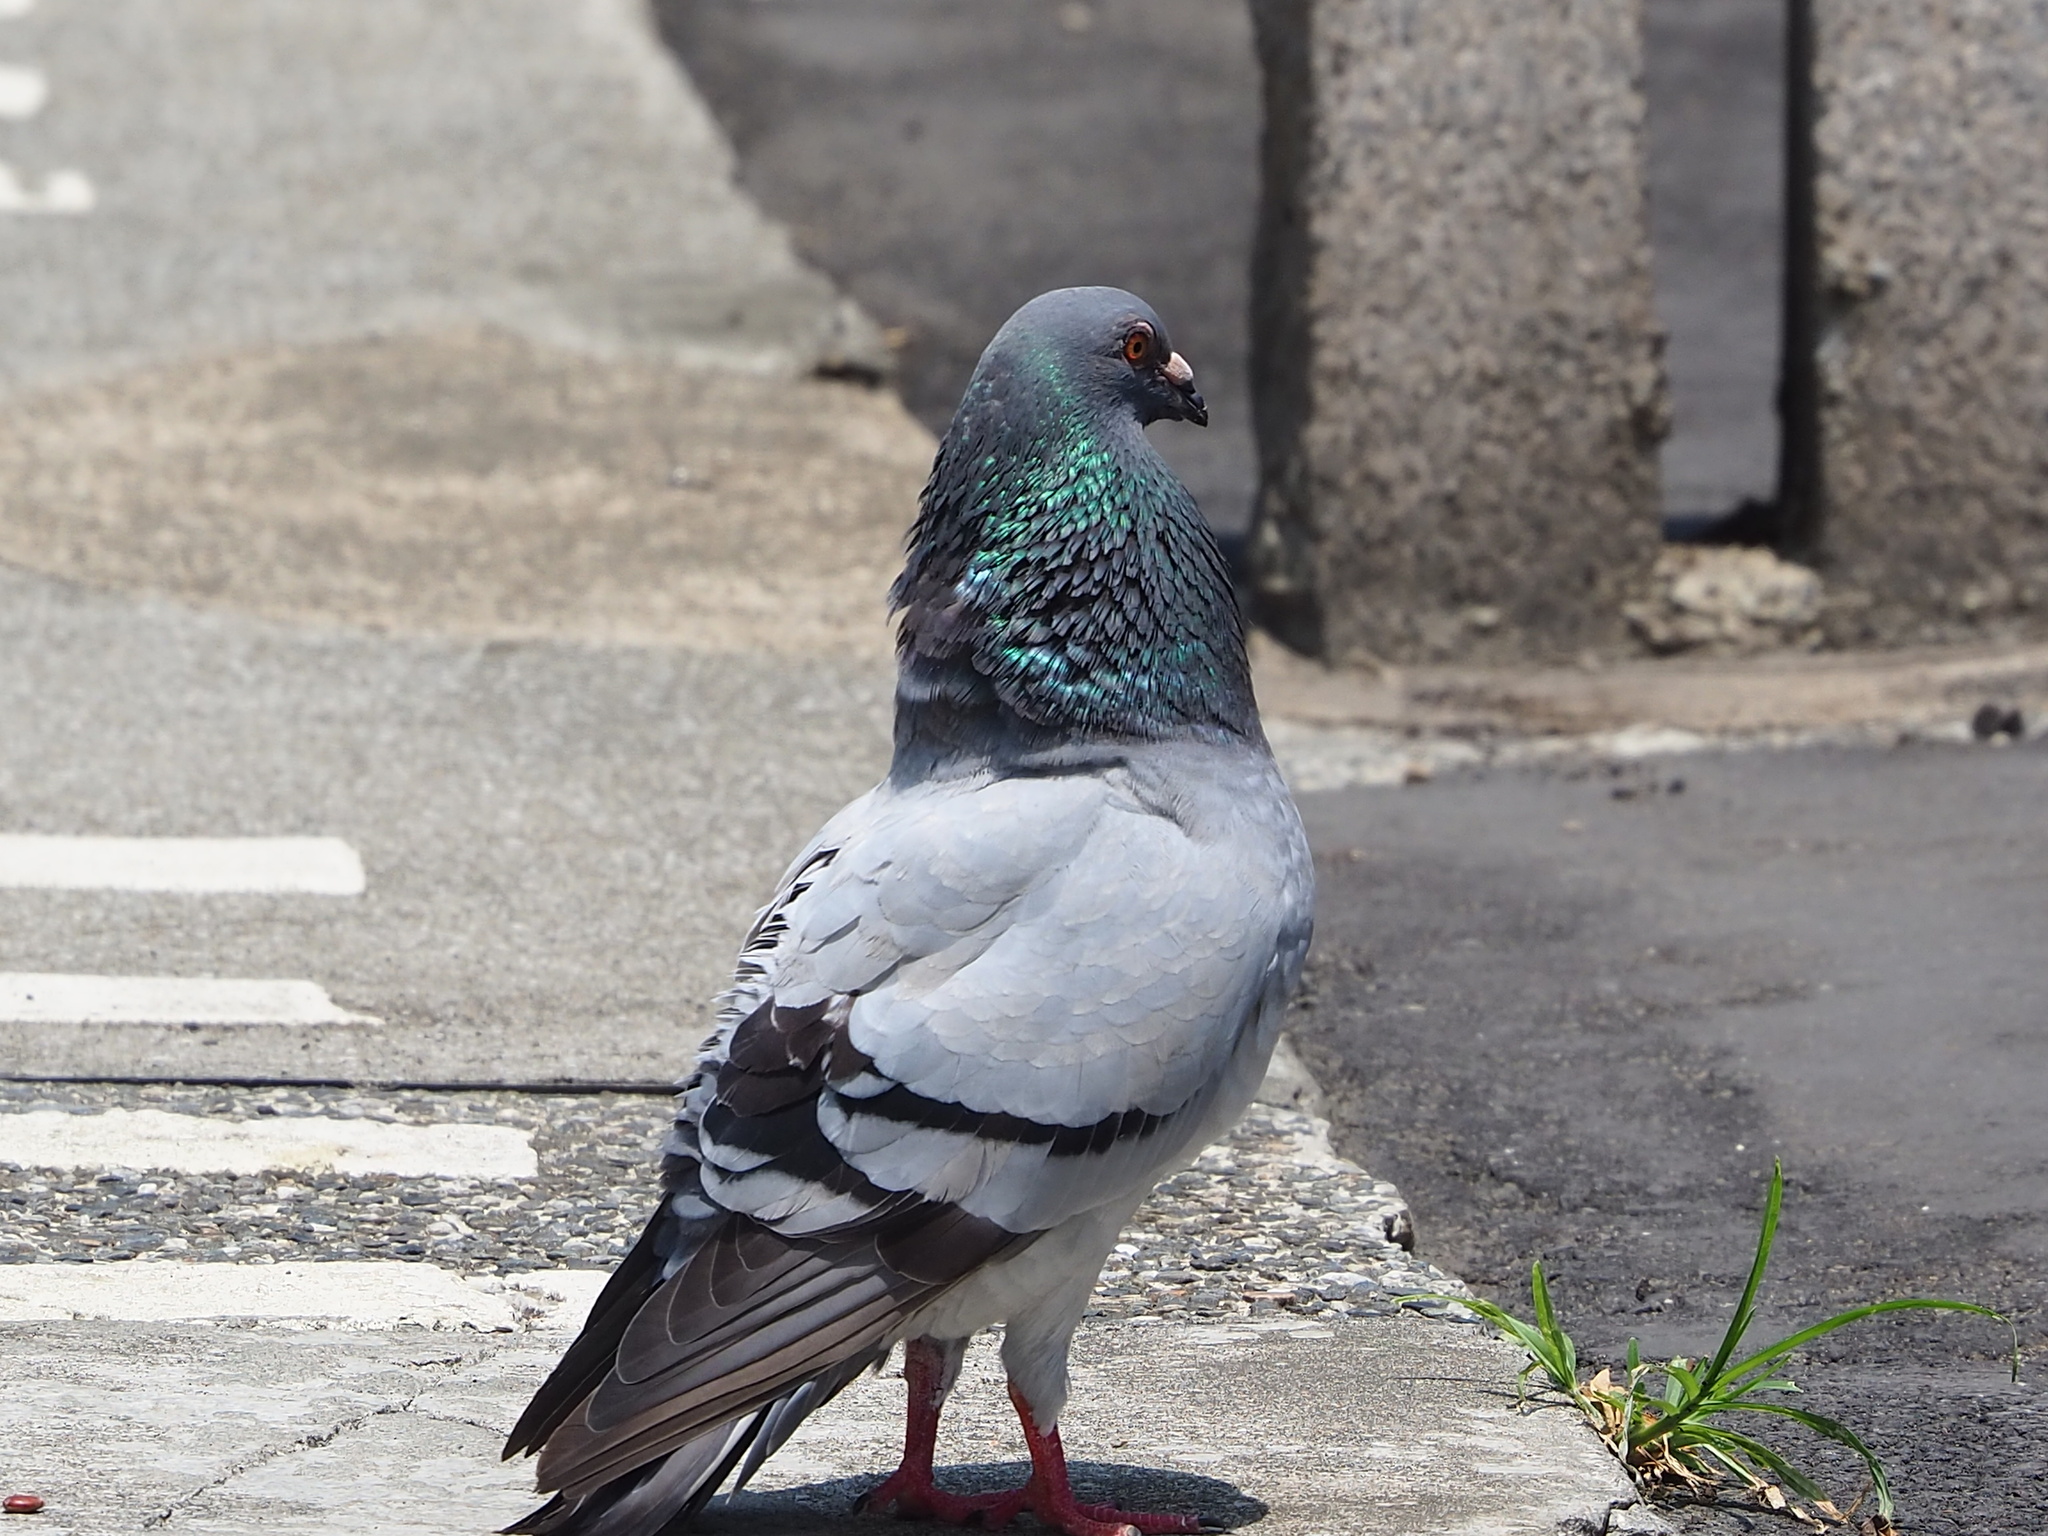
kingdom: Animalia
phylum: Chordata
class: Aves
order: Columbiformes
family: Columbidae
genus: Columba
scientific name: Columba livia
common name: Rock pigeon
